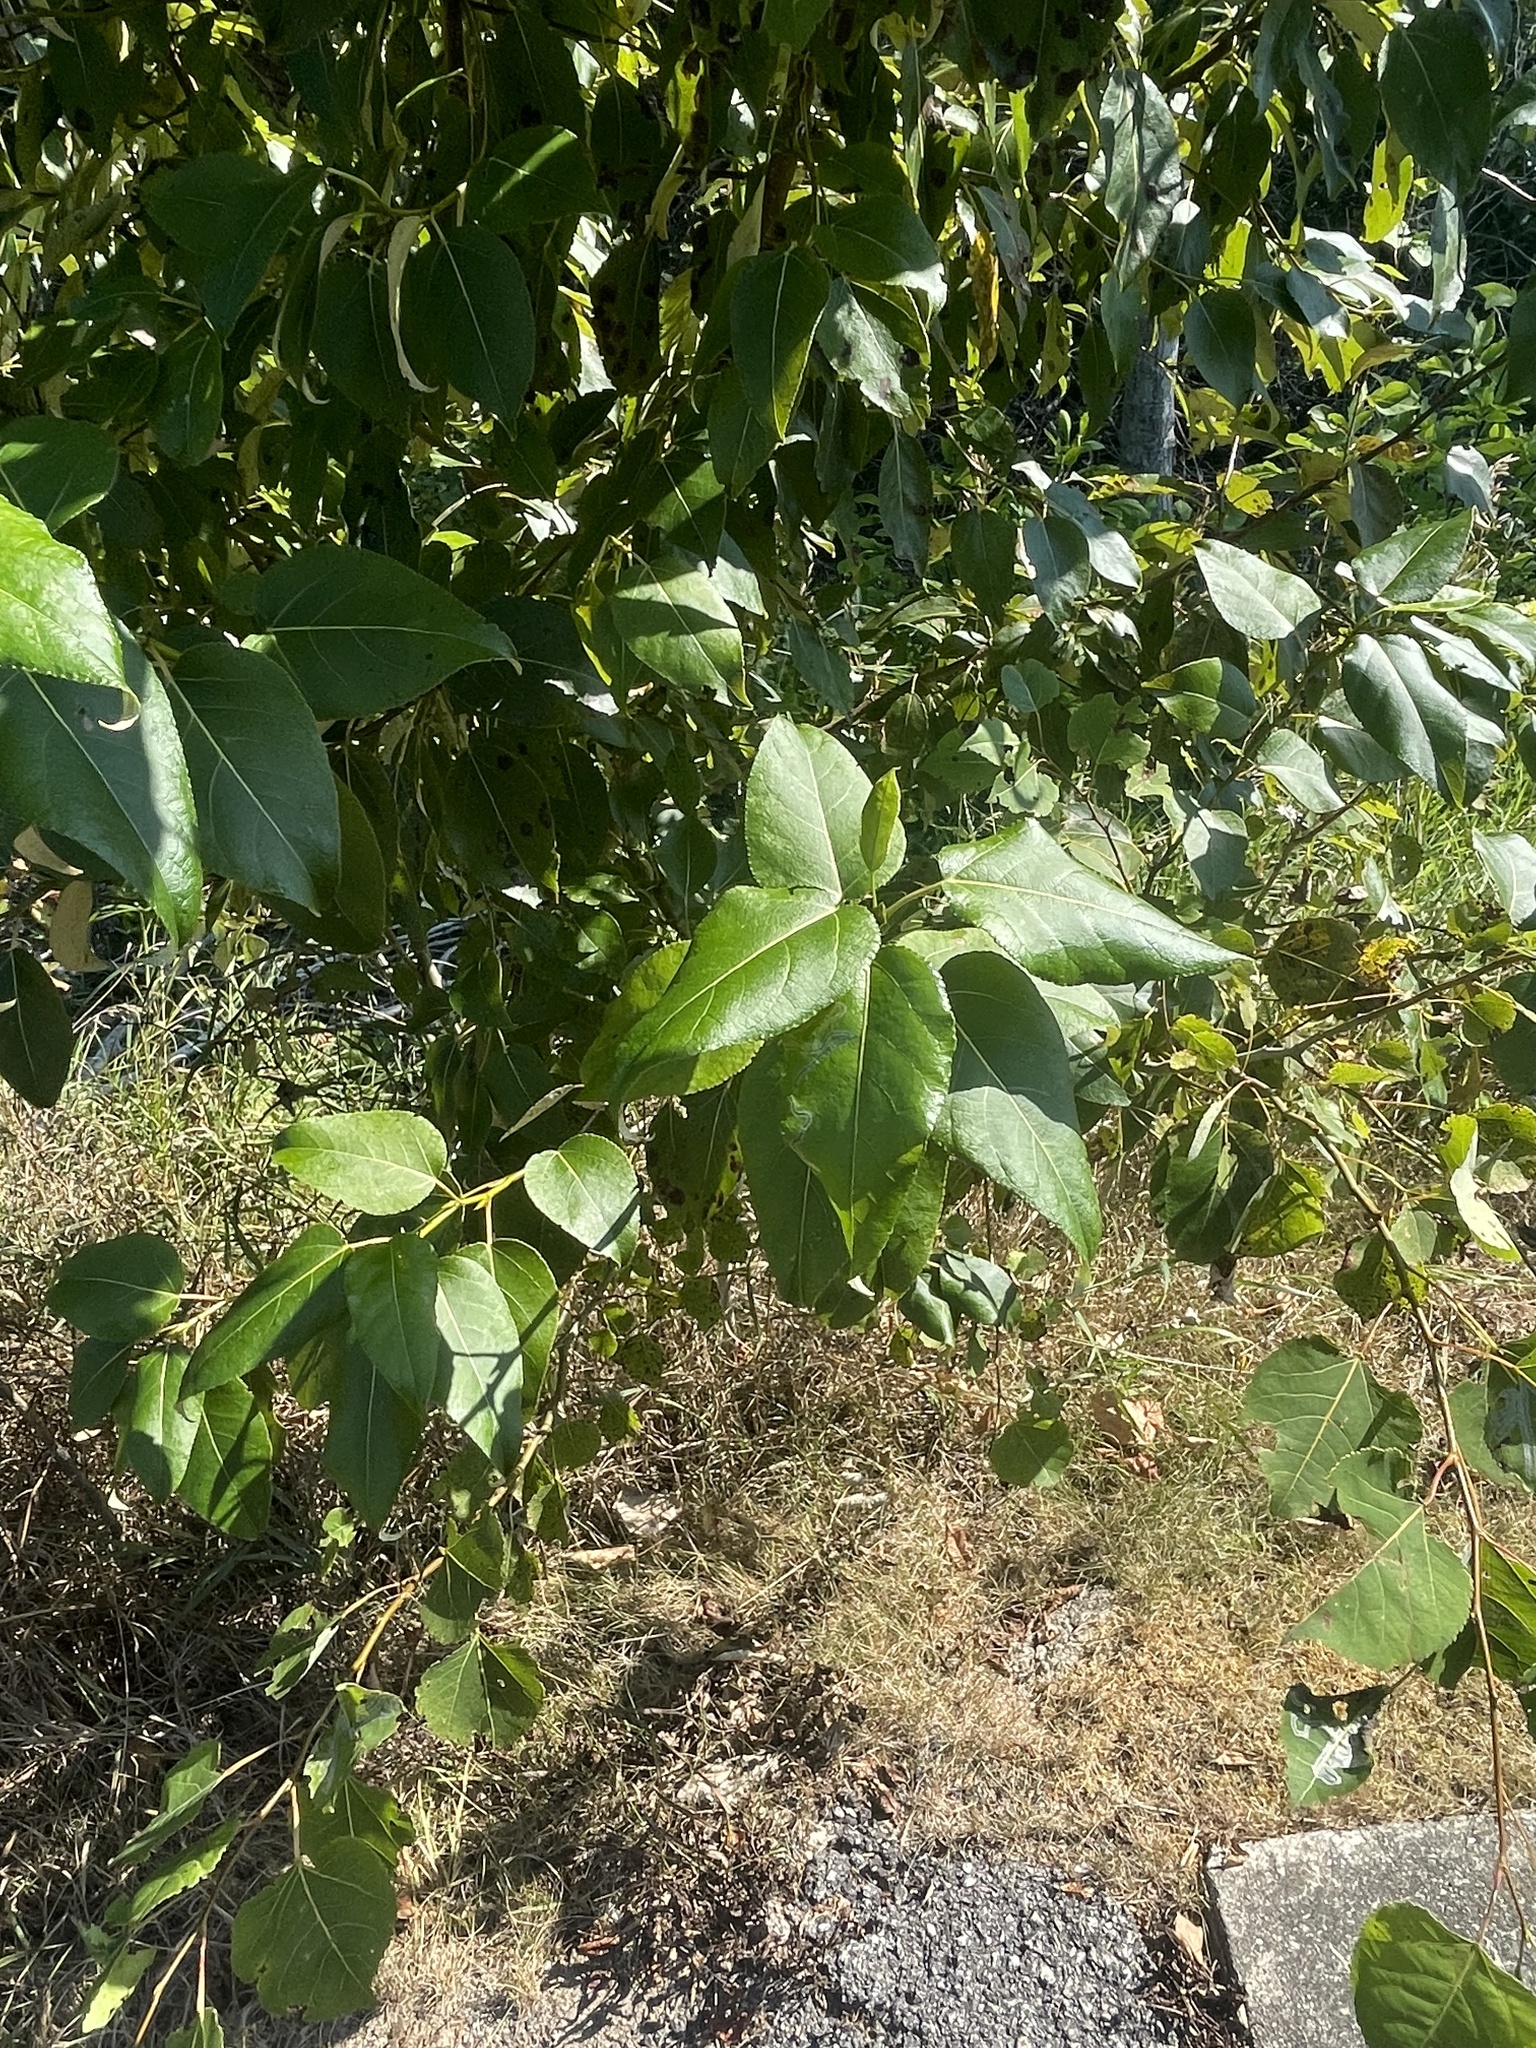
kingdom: Plantae
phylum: Tracheophyta
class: Magnoliopsida
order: Malpighiales
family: Salicaceae
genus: Populus
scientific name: Populus balsamifera
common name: Balsam poplar
